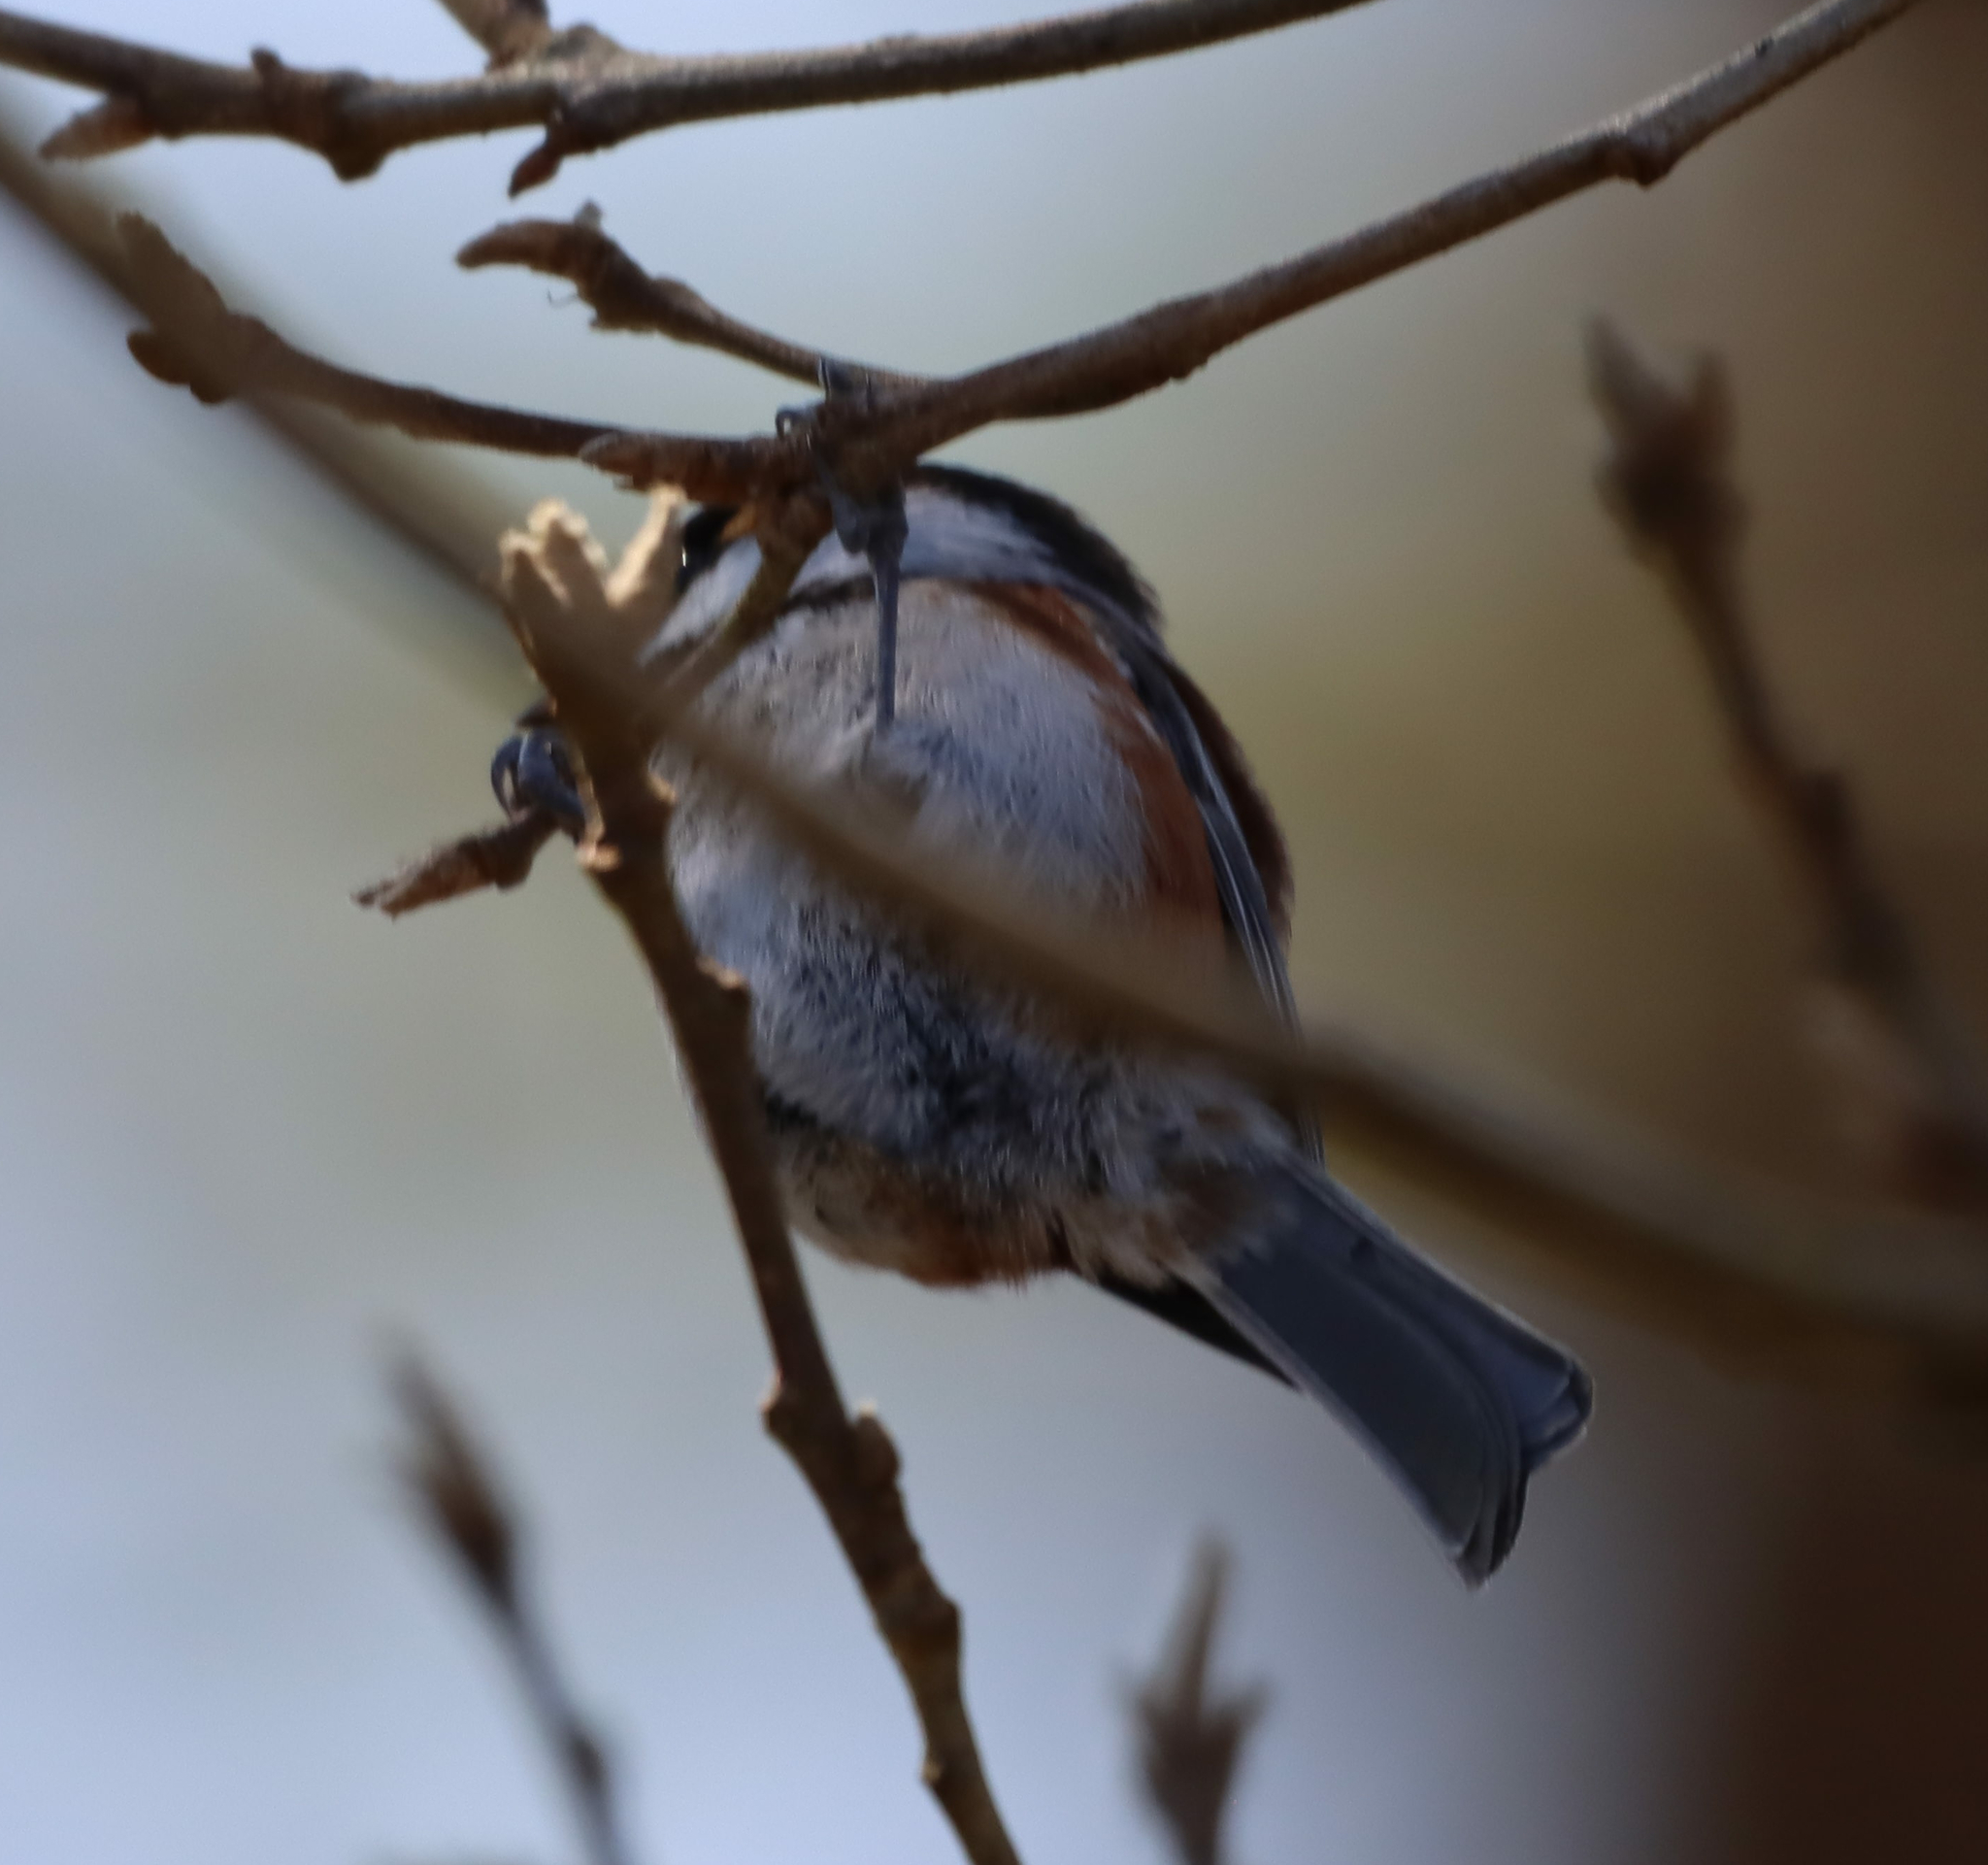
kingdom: Animalia
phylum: Chordata
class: Aves
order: Passeriformes
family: Paridae
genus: Poecile
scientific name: Poecile rufescens
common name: Chestnut-backed chickadee
